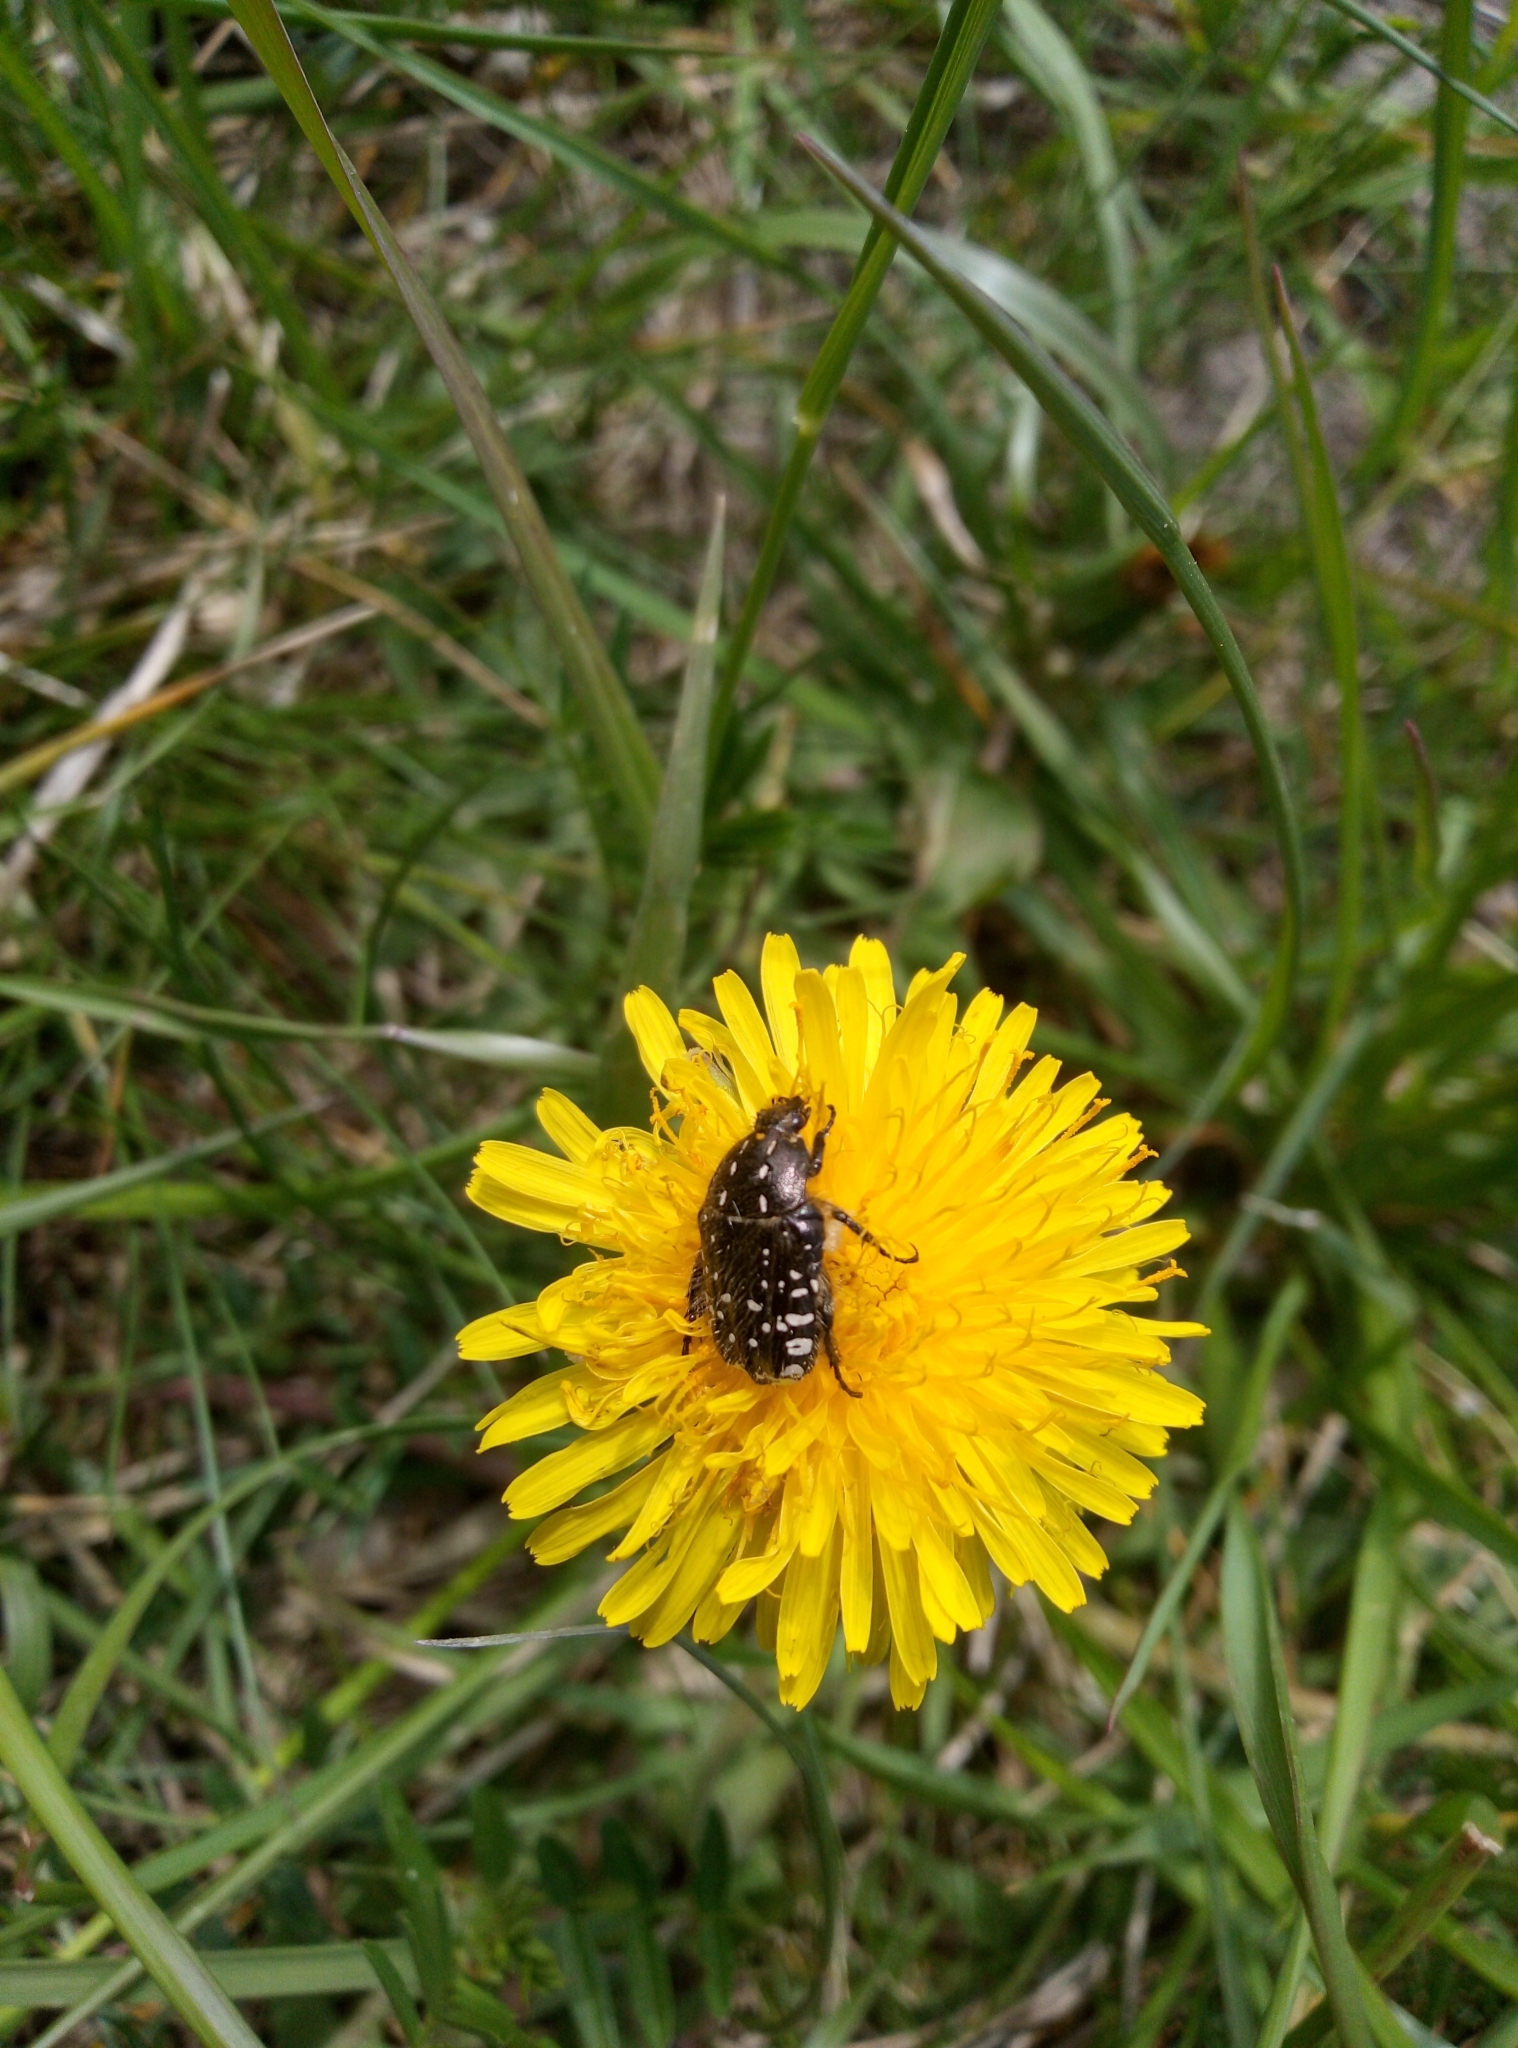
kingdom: Animalia
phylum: Arthropoda
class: Insecta
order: Coleoptera
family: Scarabaeidae
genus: Oxythyrea
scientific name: Oxythyrea funesta
